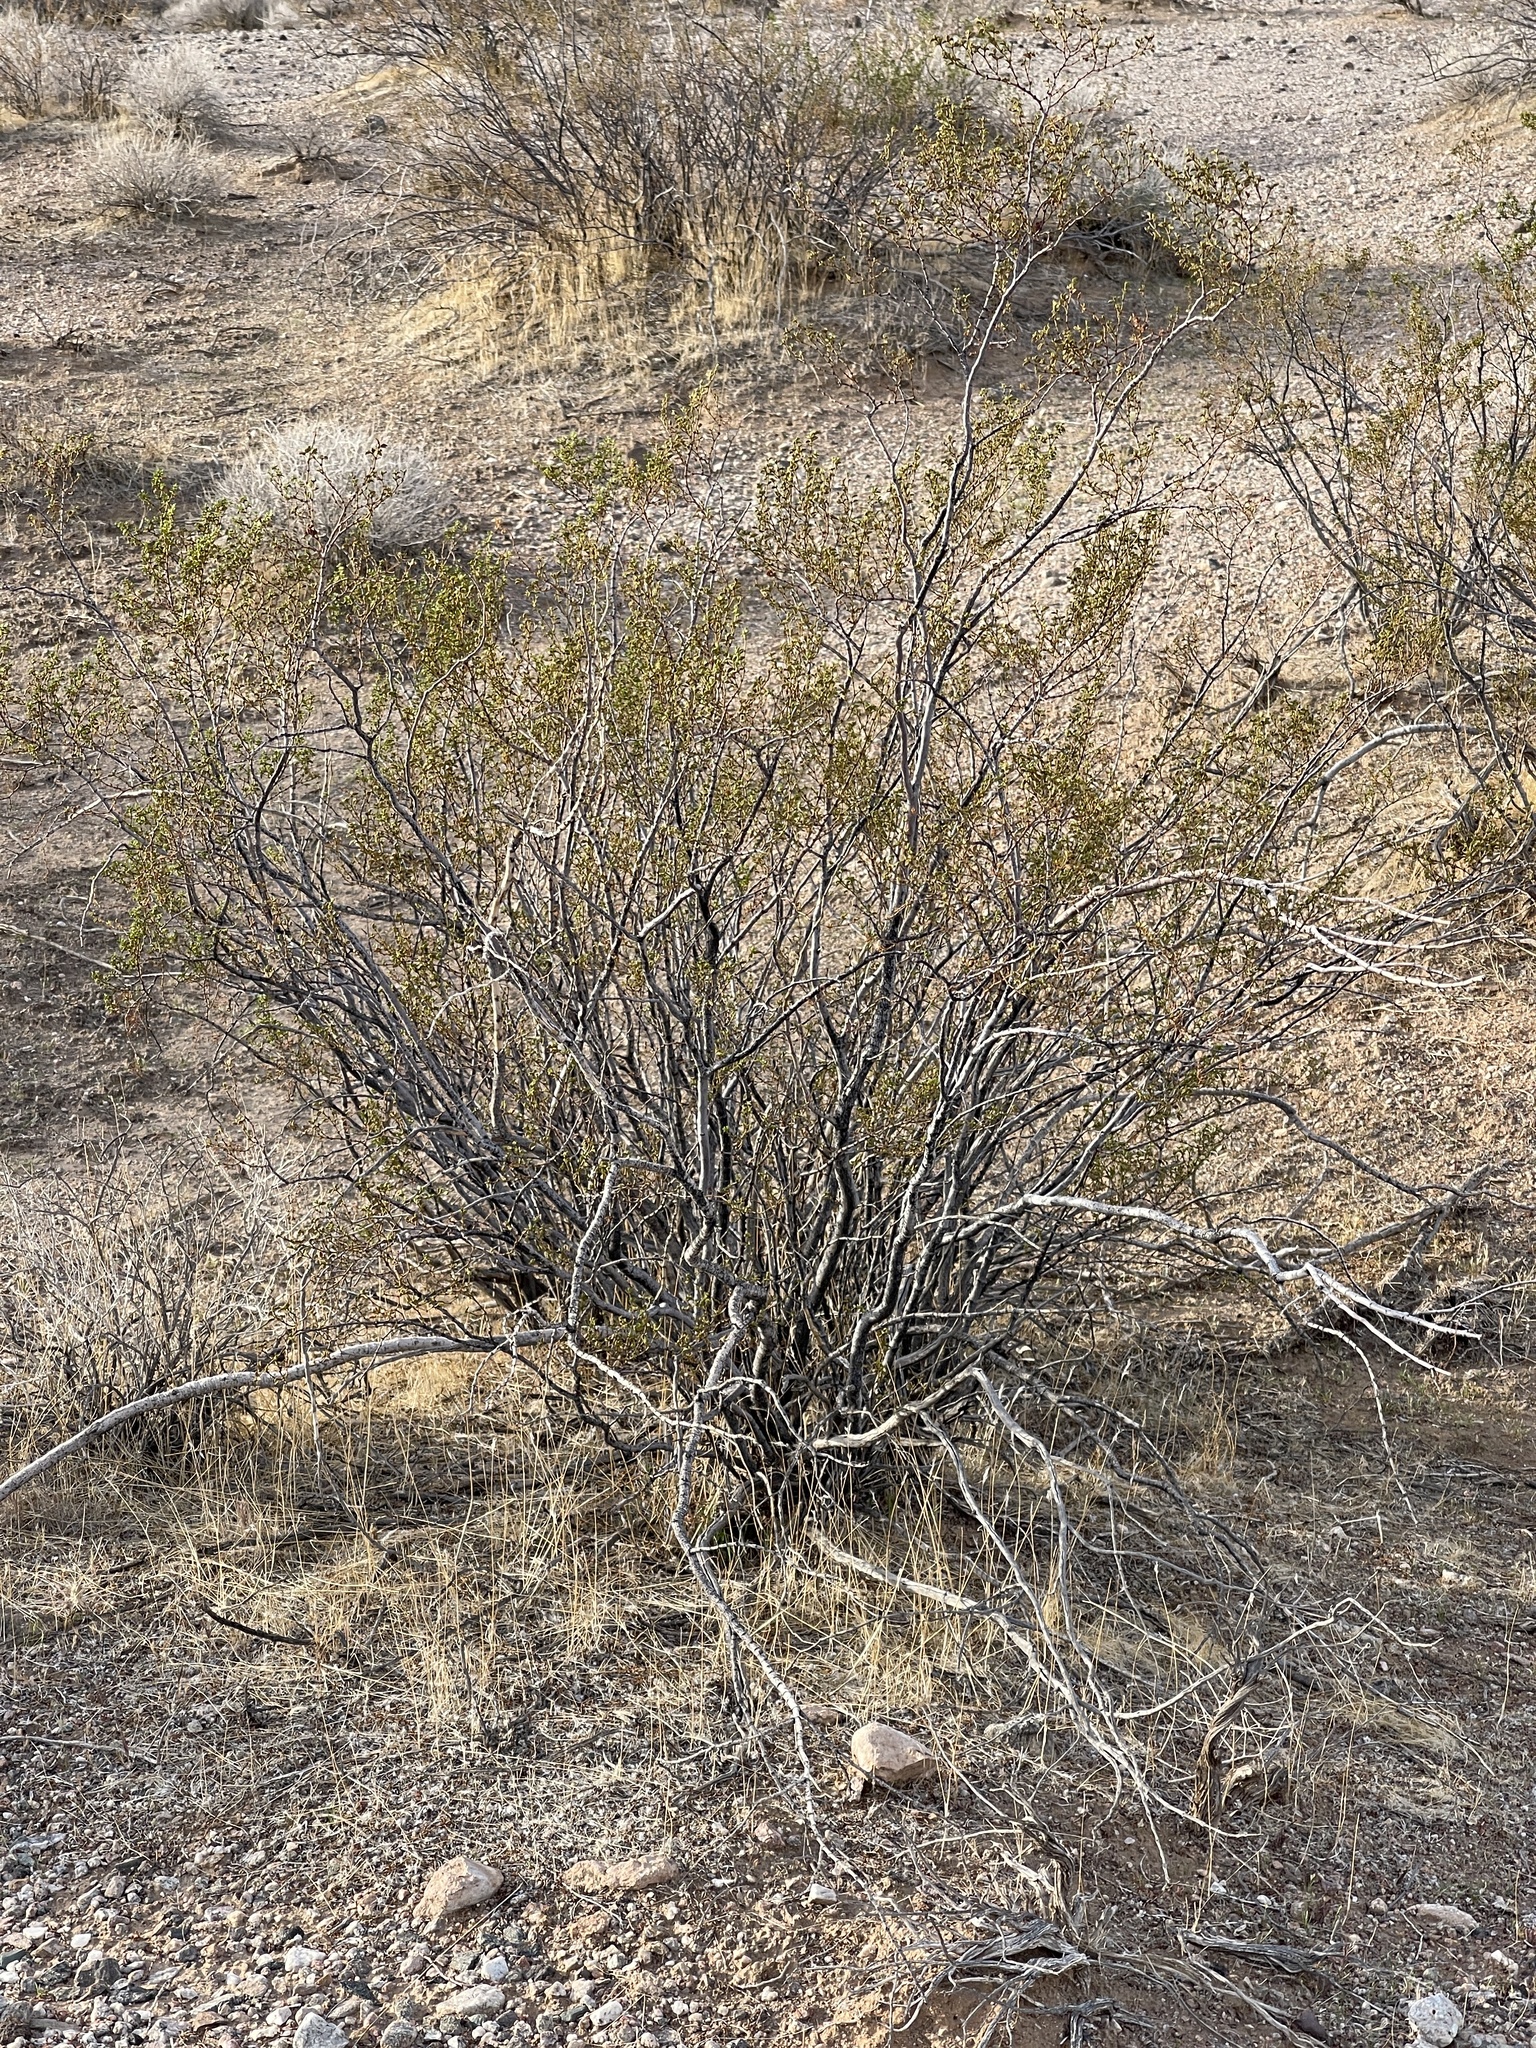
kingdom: Plantae
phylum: Tracheophyta
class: Magnoliopsida
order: Zygophyllales
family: Zygophyllaceae
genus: Larrea
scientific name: Larrea tridentata
